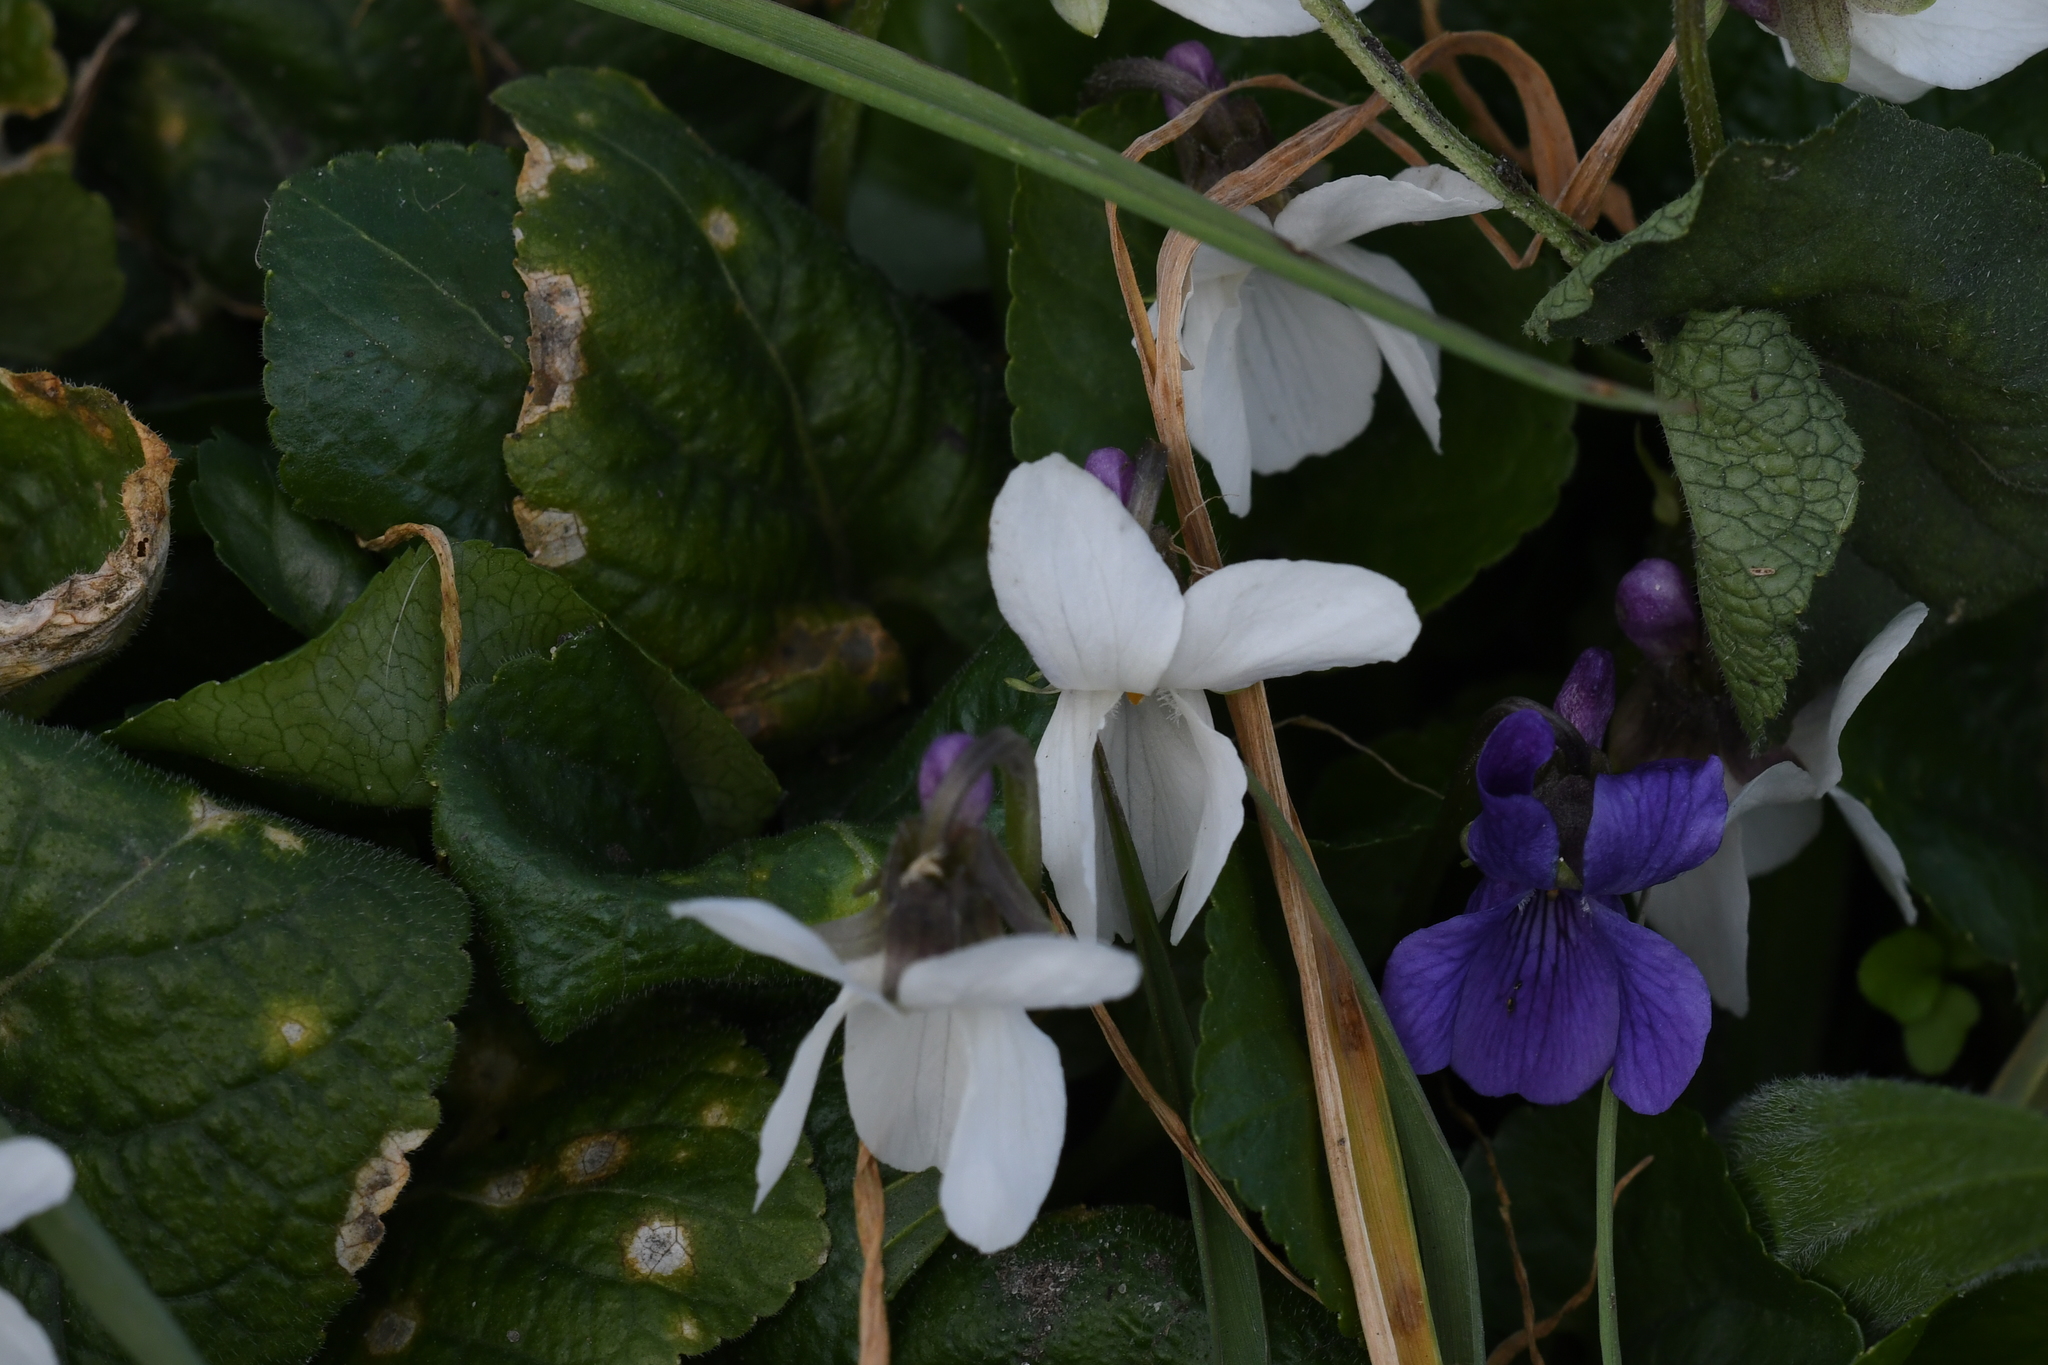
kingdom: Plantae
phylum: Tracheophyta
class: Magnoliopsida
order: Malpighiales
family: Violaceae
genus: Viola
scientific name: Viola odorata
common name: Sweet violet
